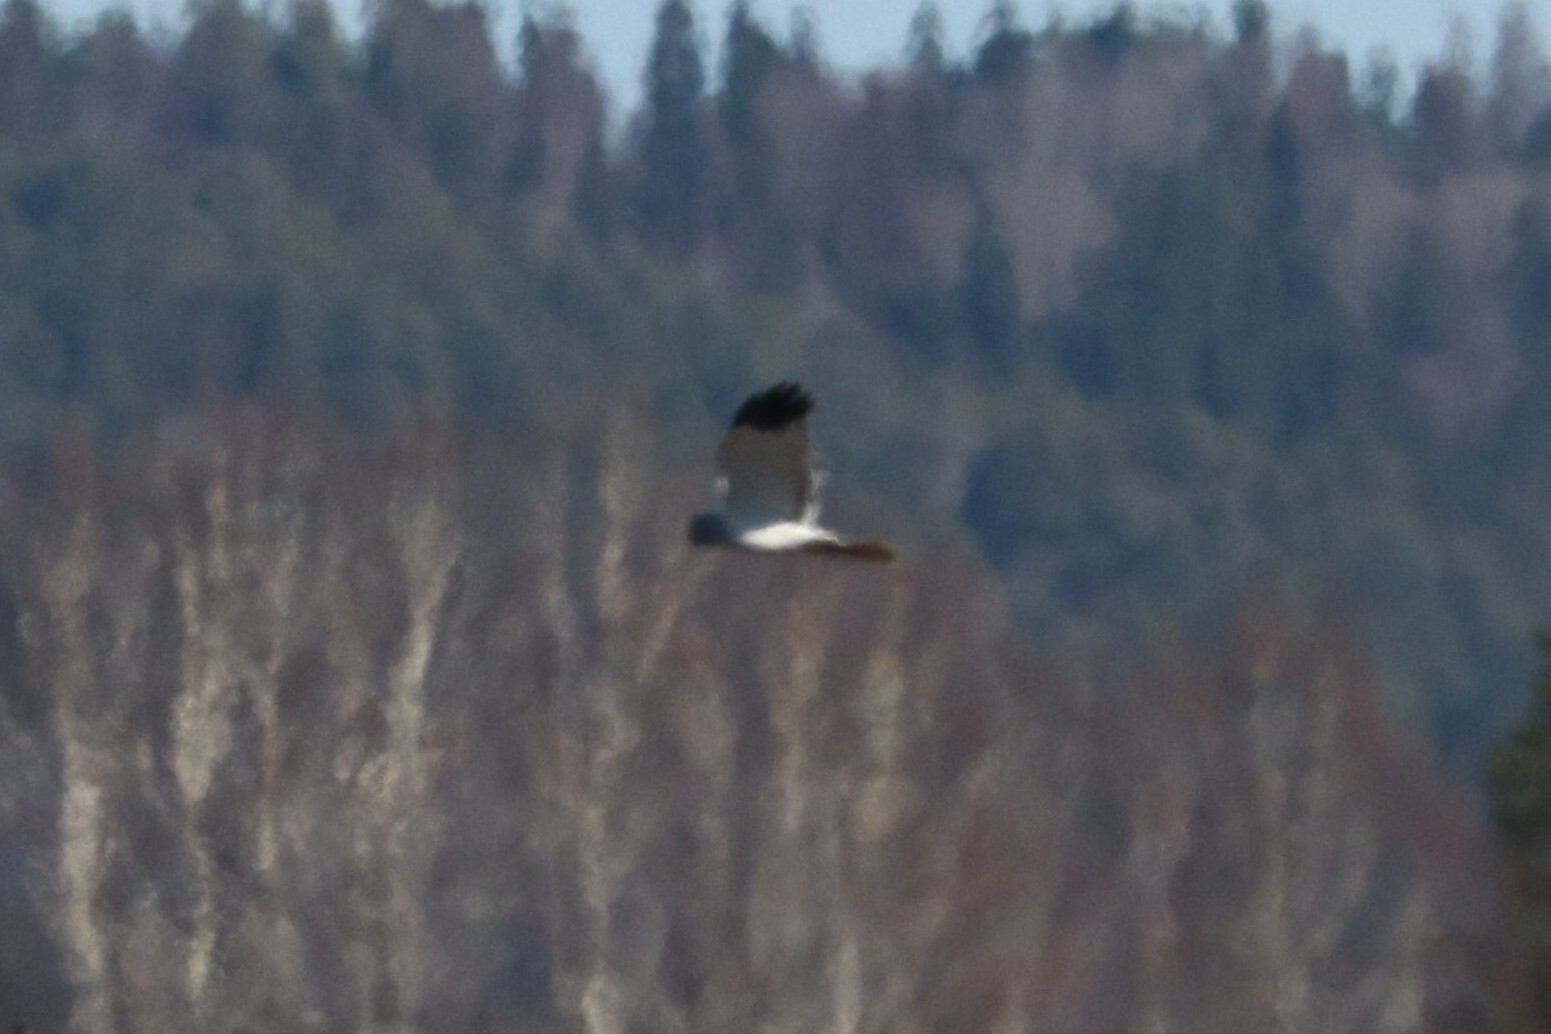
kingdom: Animalia
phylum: Chordata
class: Aves
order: Accipitriformes
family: Accipitridae
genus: Circus
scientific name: Circus cyaneus
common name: Hen harrier
